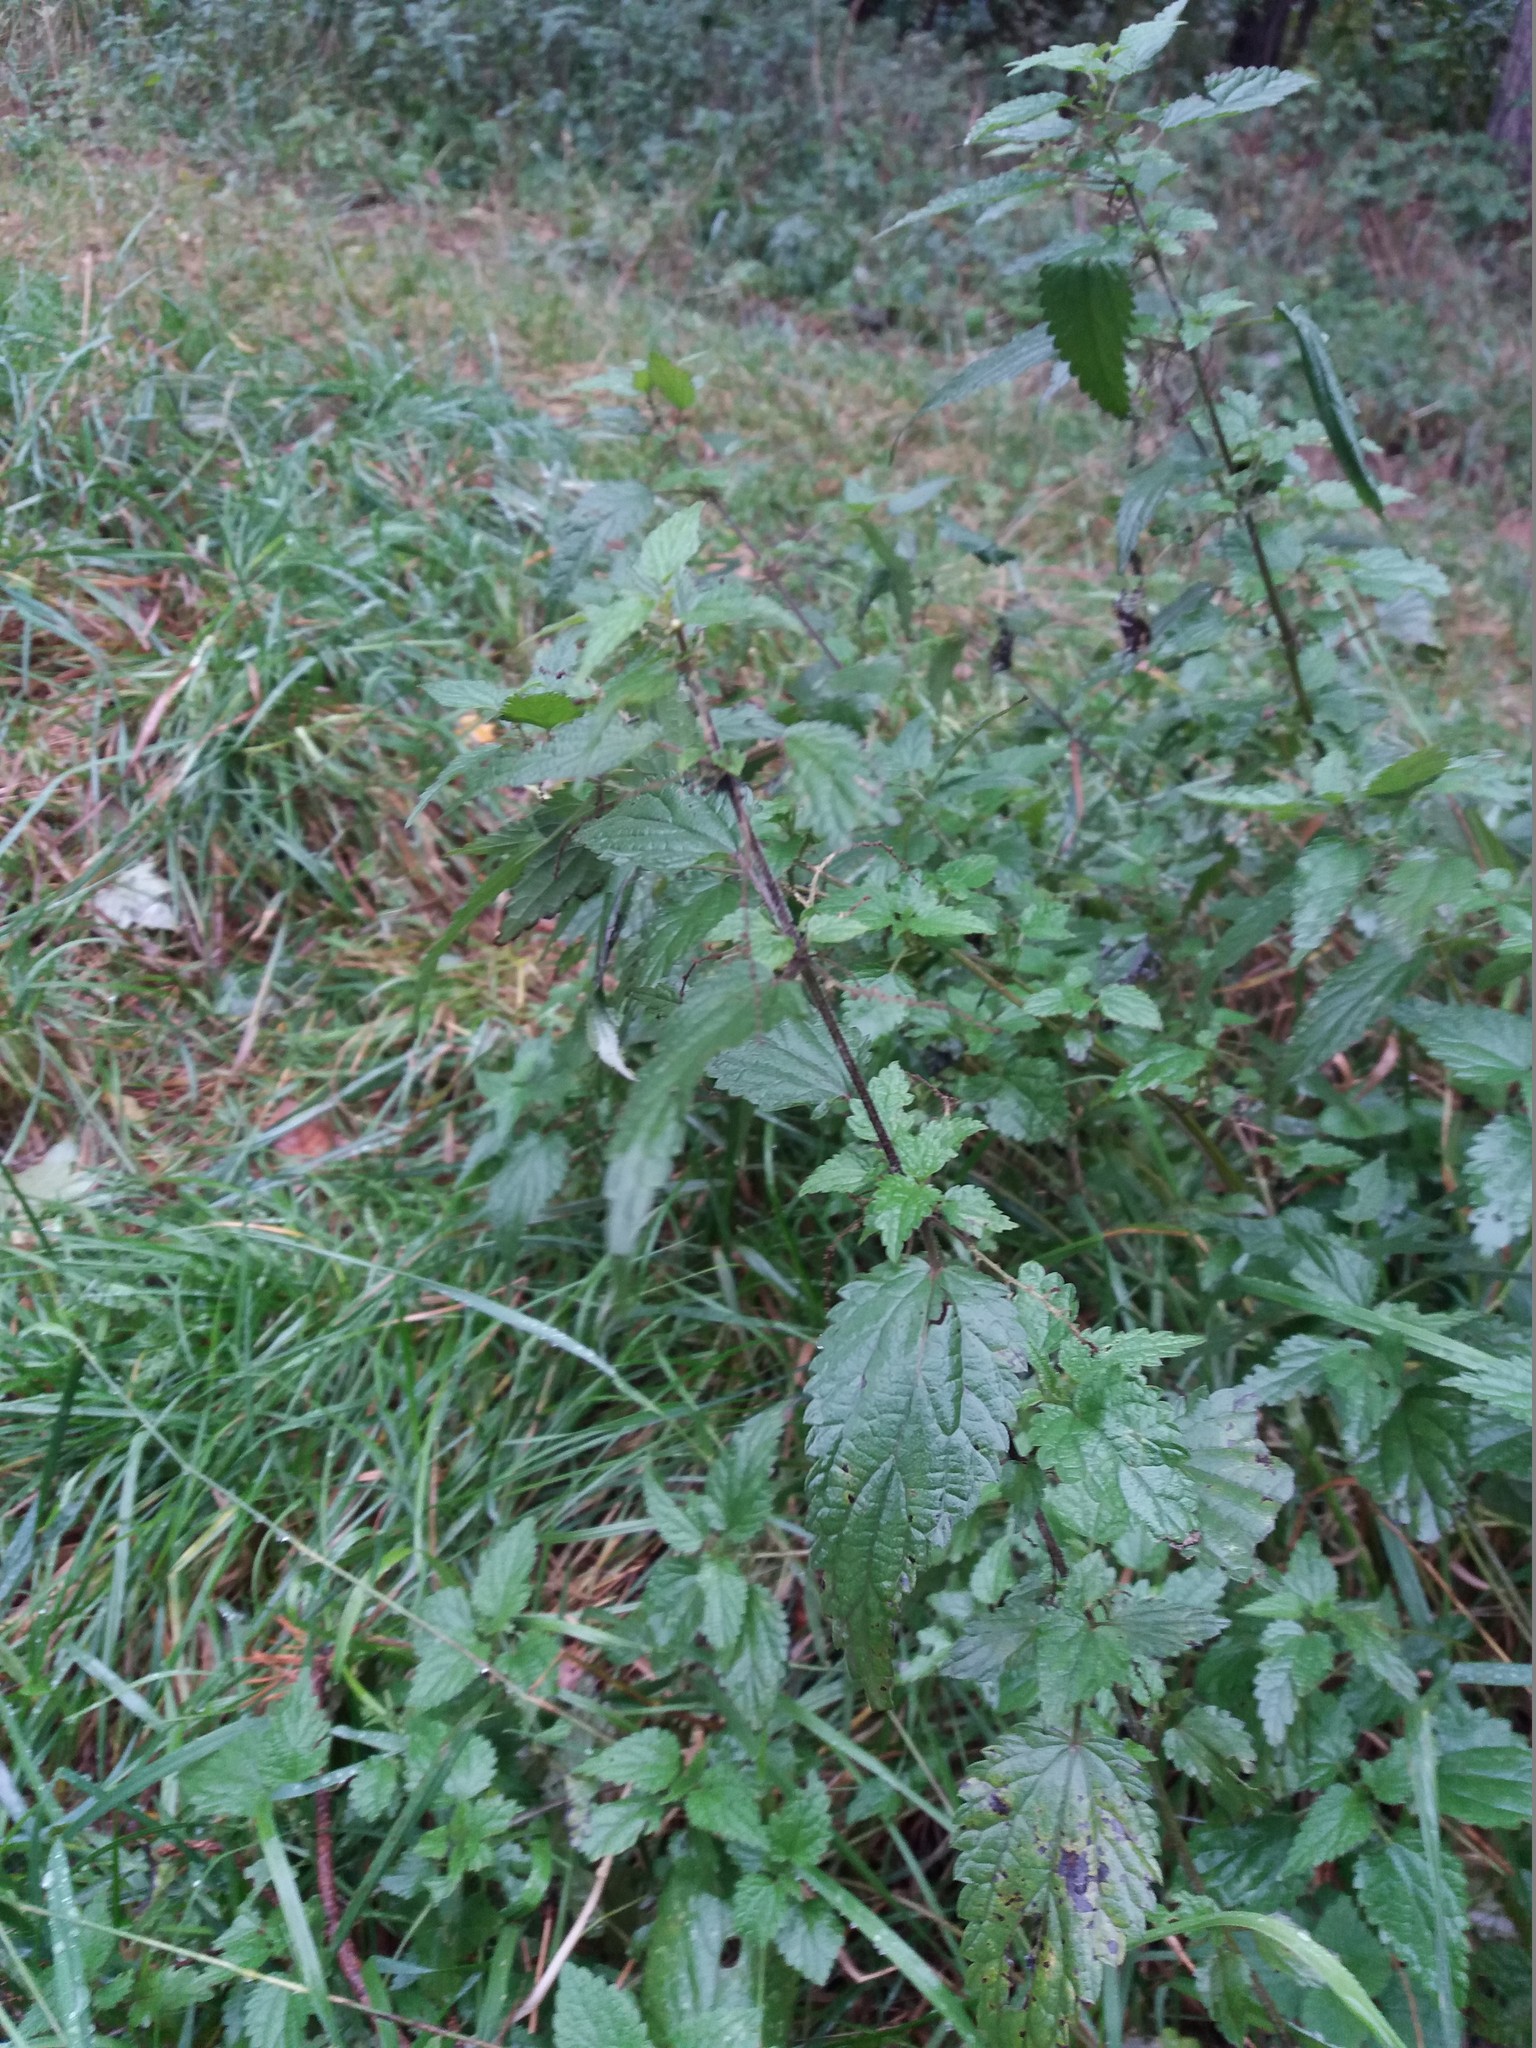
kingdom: Plantae
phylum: Tracheophyta
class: Magnoliopsida
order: Rosales
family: Urticaceae
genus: Urtica
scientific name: Urtica dioica
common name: Common nettle
